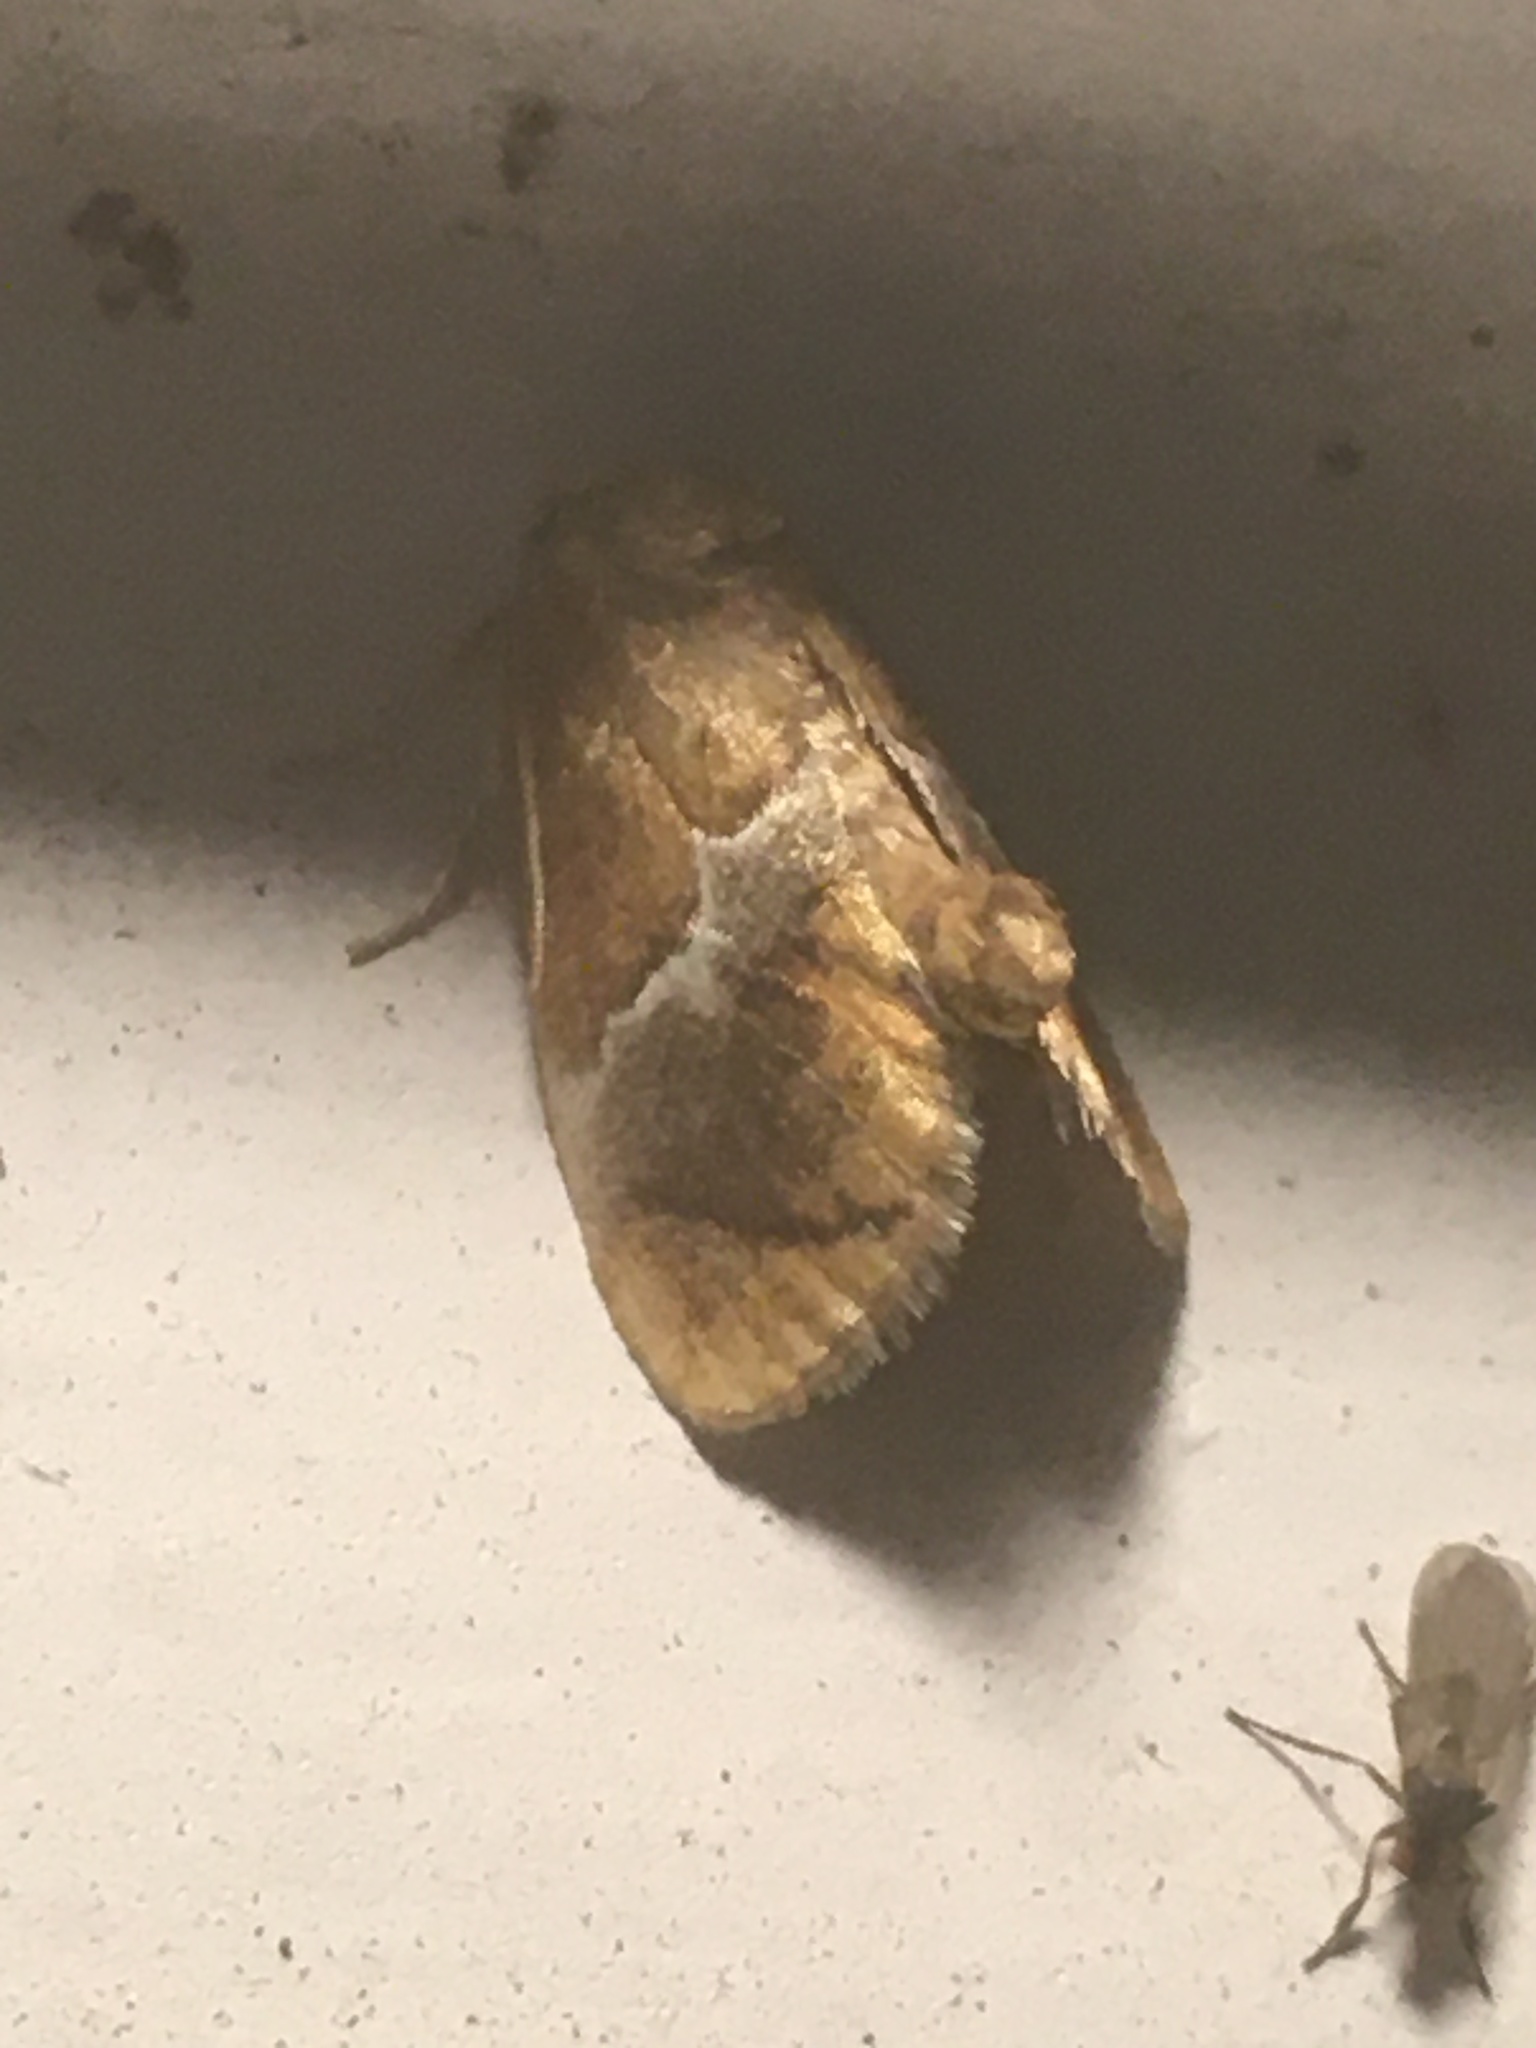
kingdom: Animalia
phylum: Arthropoda
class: Insecta
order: Lepidoptera
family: Limacodidae
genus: Lithacodes
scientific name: Lithacodes fasciola
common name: Yellow-shouldered slug moth
